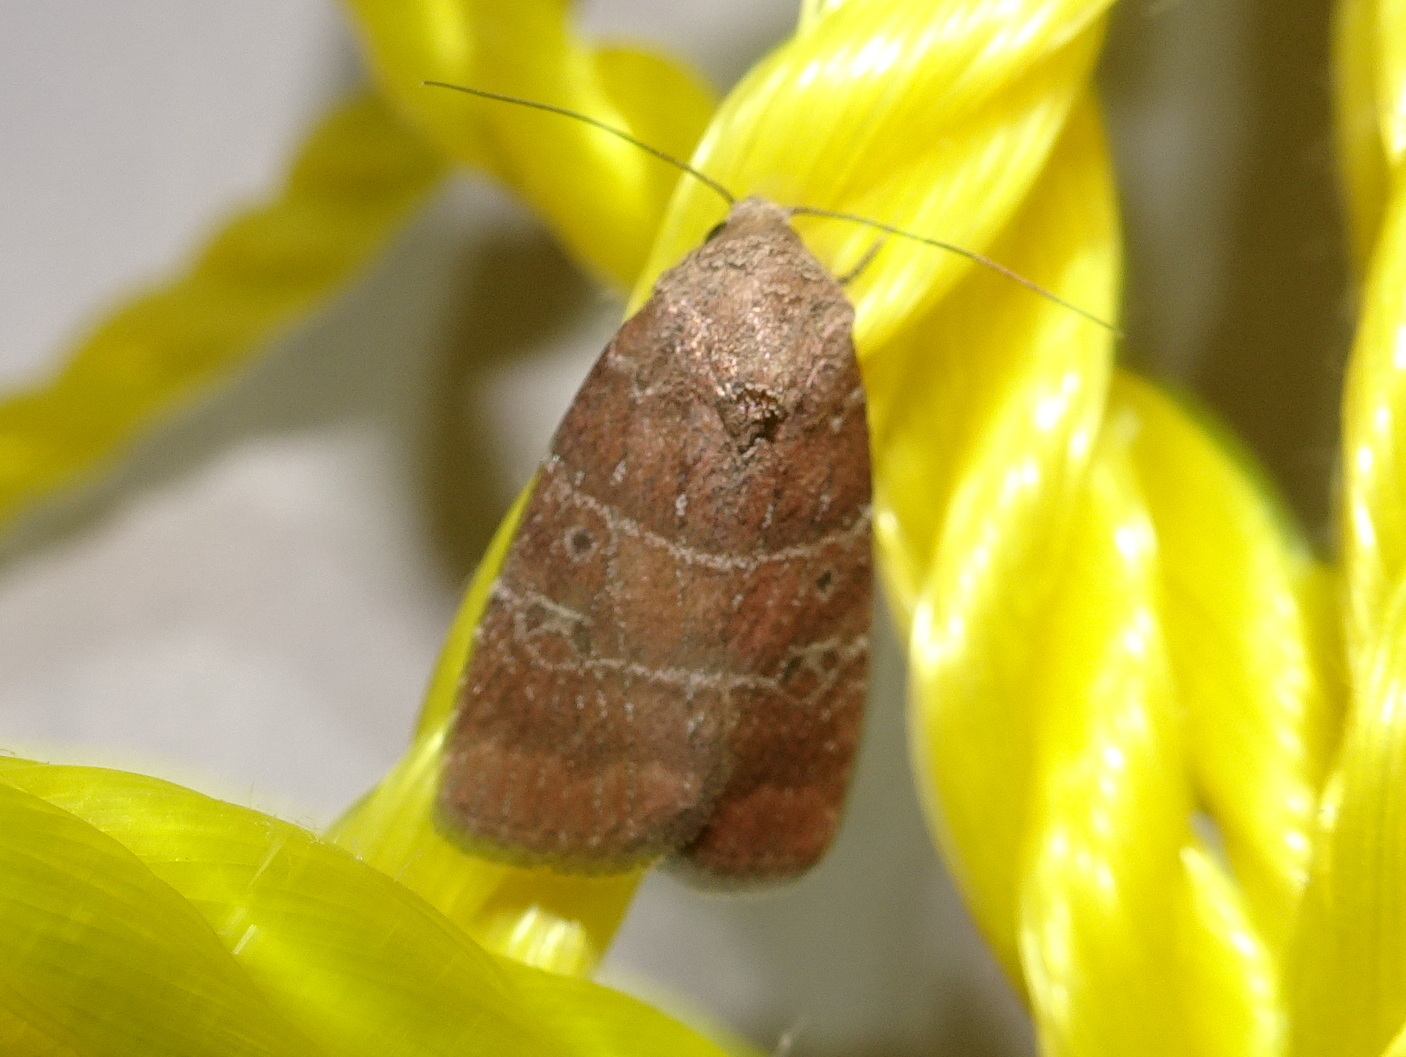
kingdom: Animalia
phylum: Arthropoda
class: Insecta
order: Lepidoptera
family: Noctuidae
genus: Elaphria
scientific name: Elaphria grata
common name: Grateful midget moth
